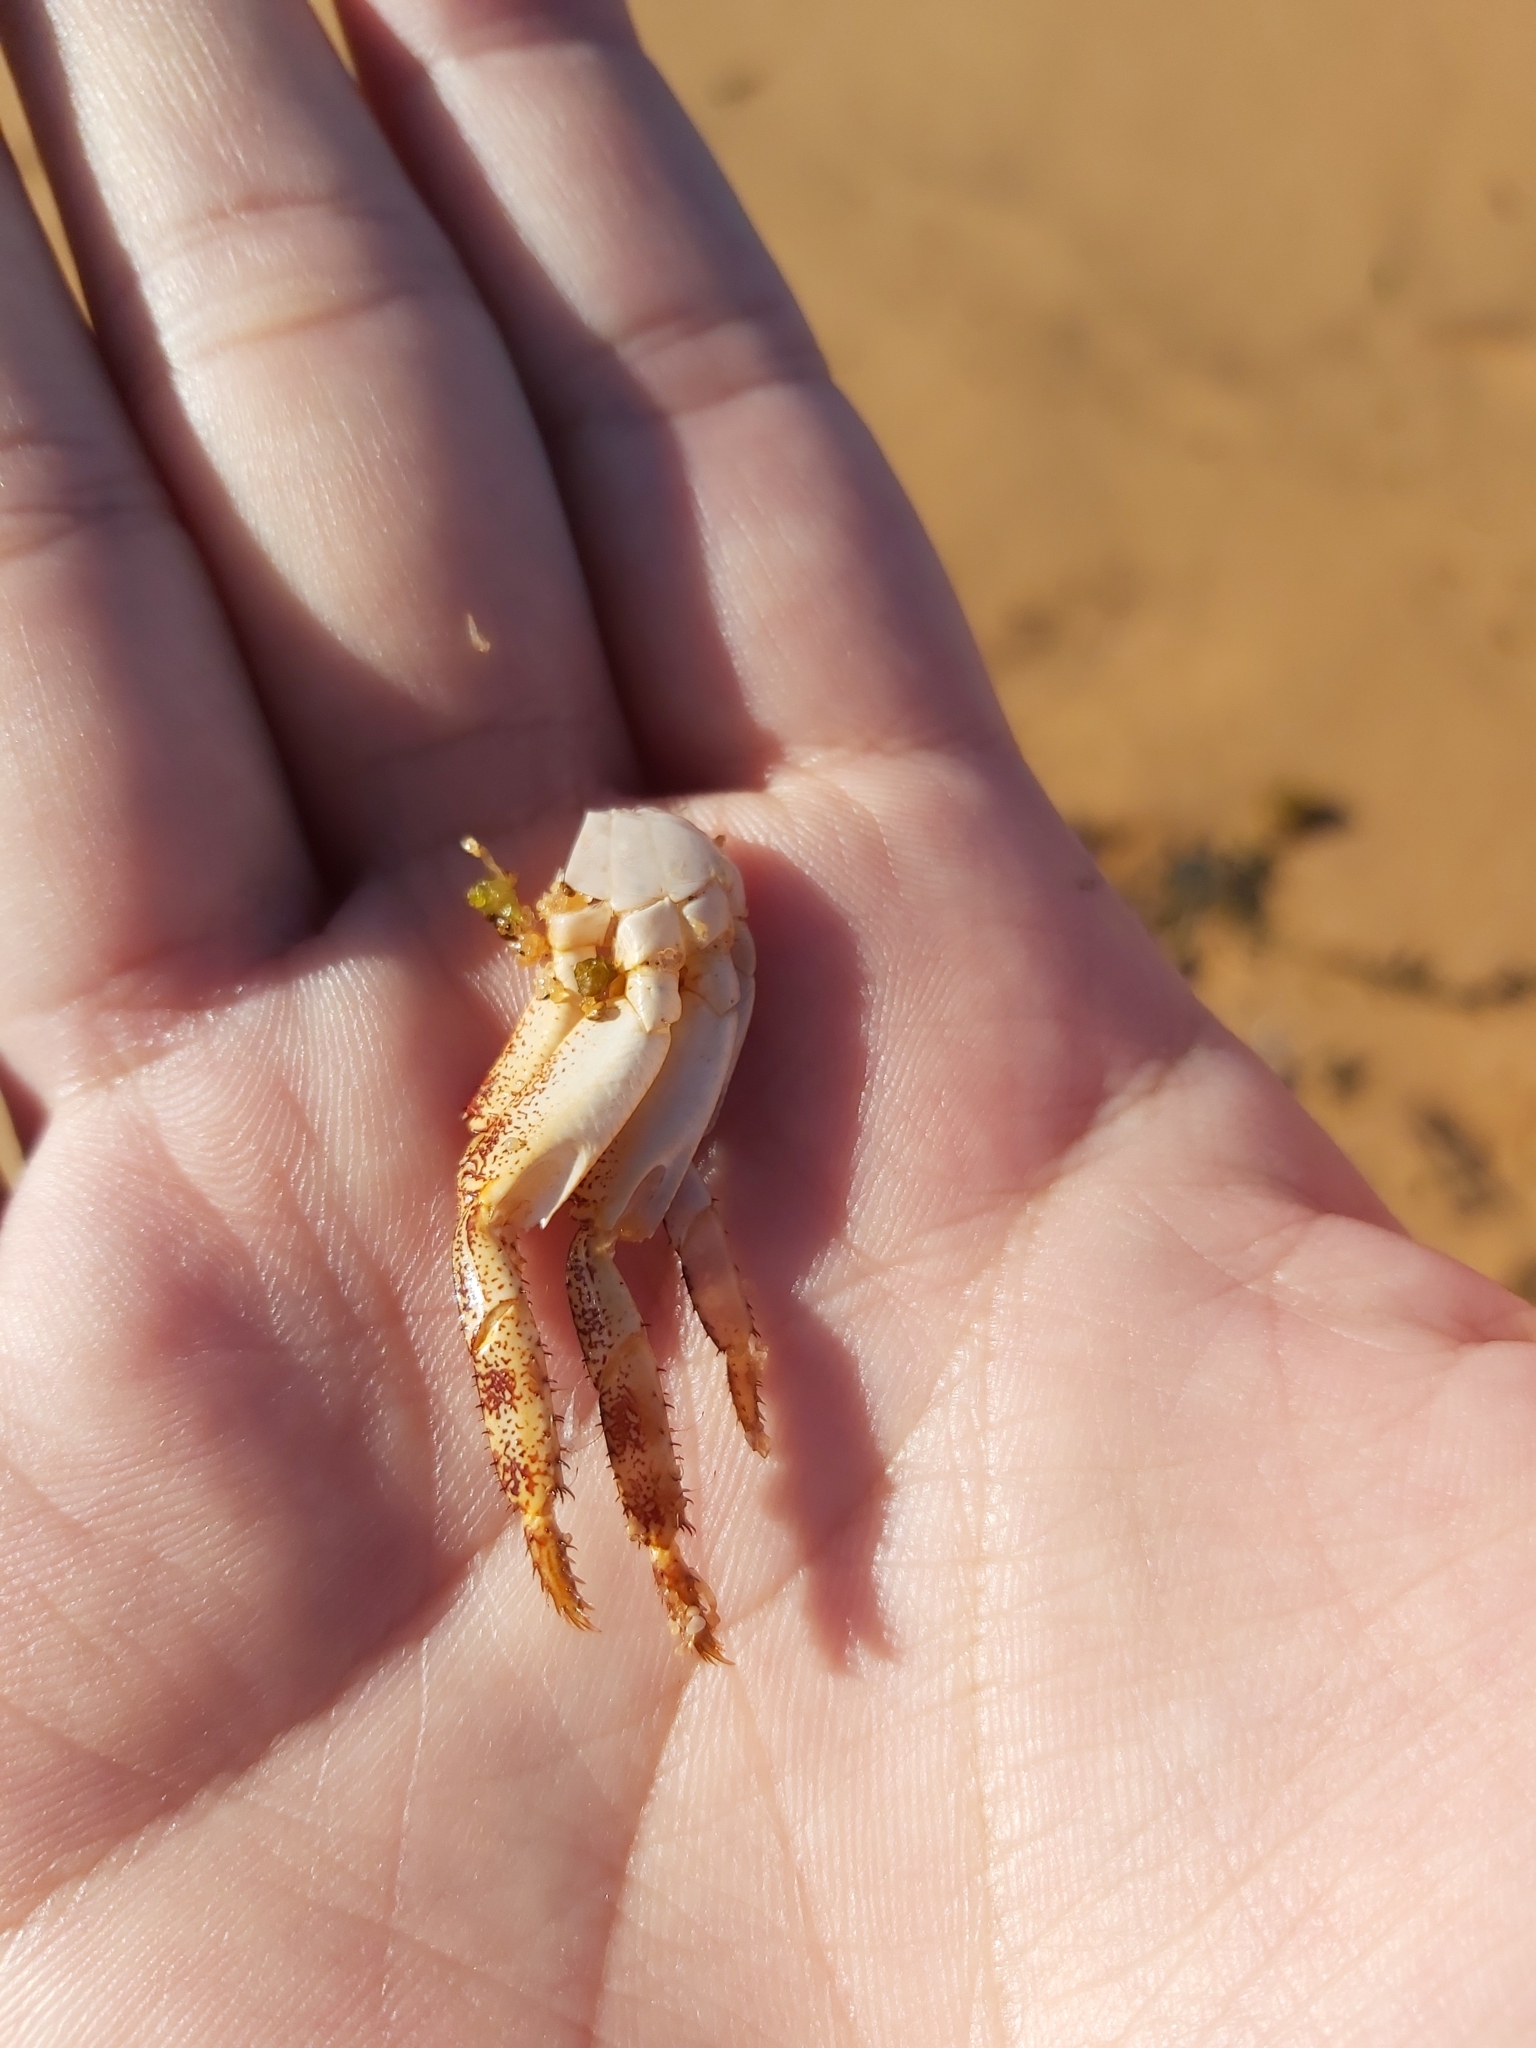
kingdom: Animalia
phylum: Arthropoda
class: Malacostraca
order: Decapoda
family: Grapsidae
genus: Leptograpsus
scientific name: Leptograpsus variegatus
